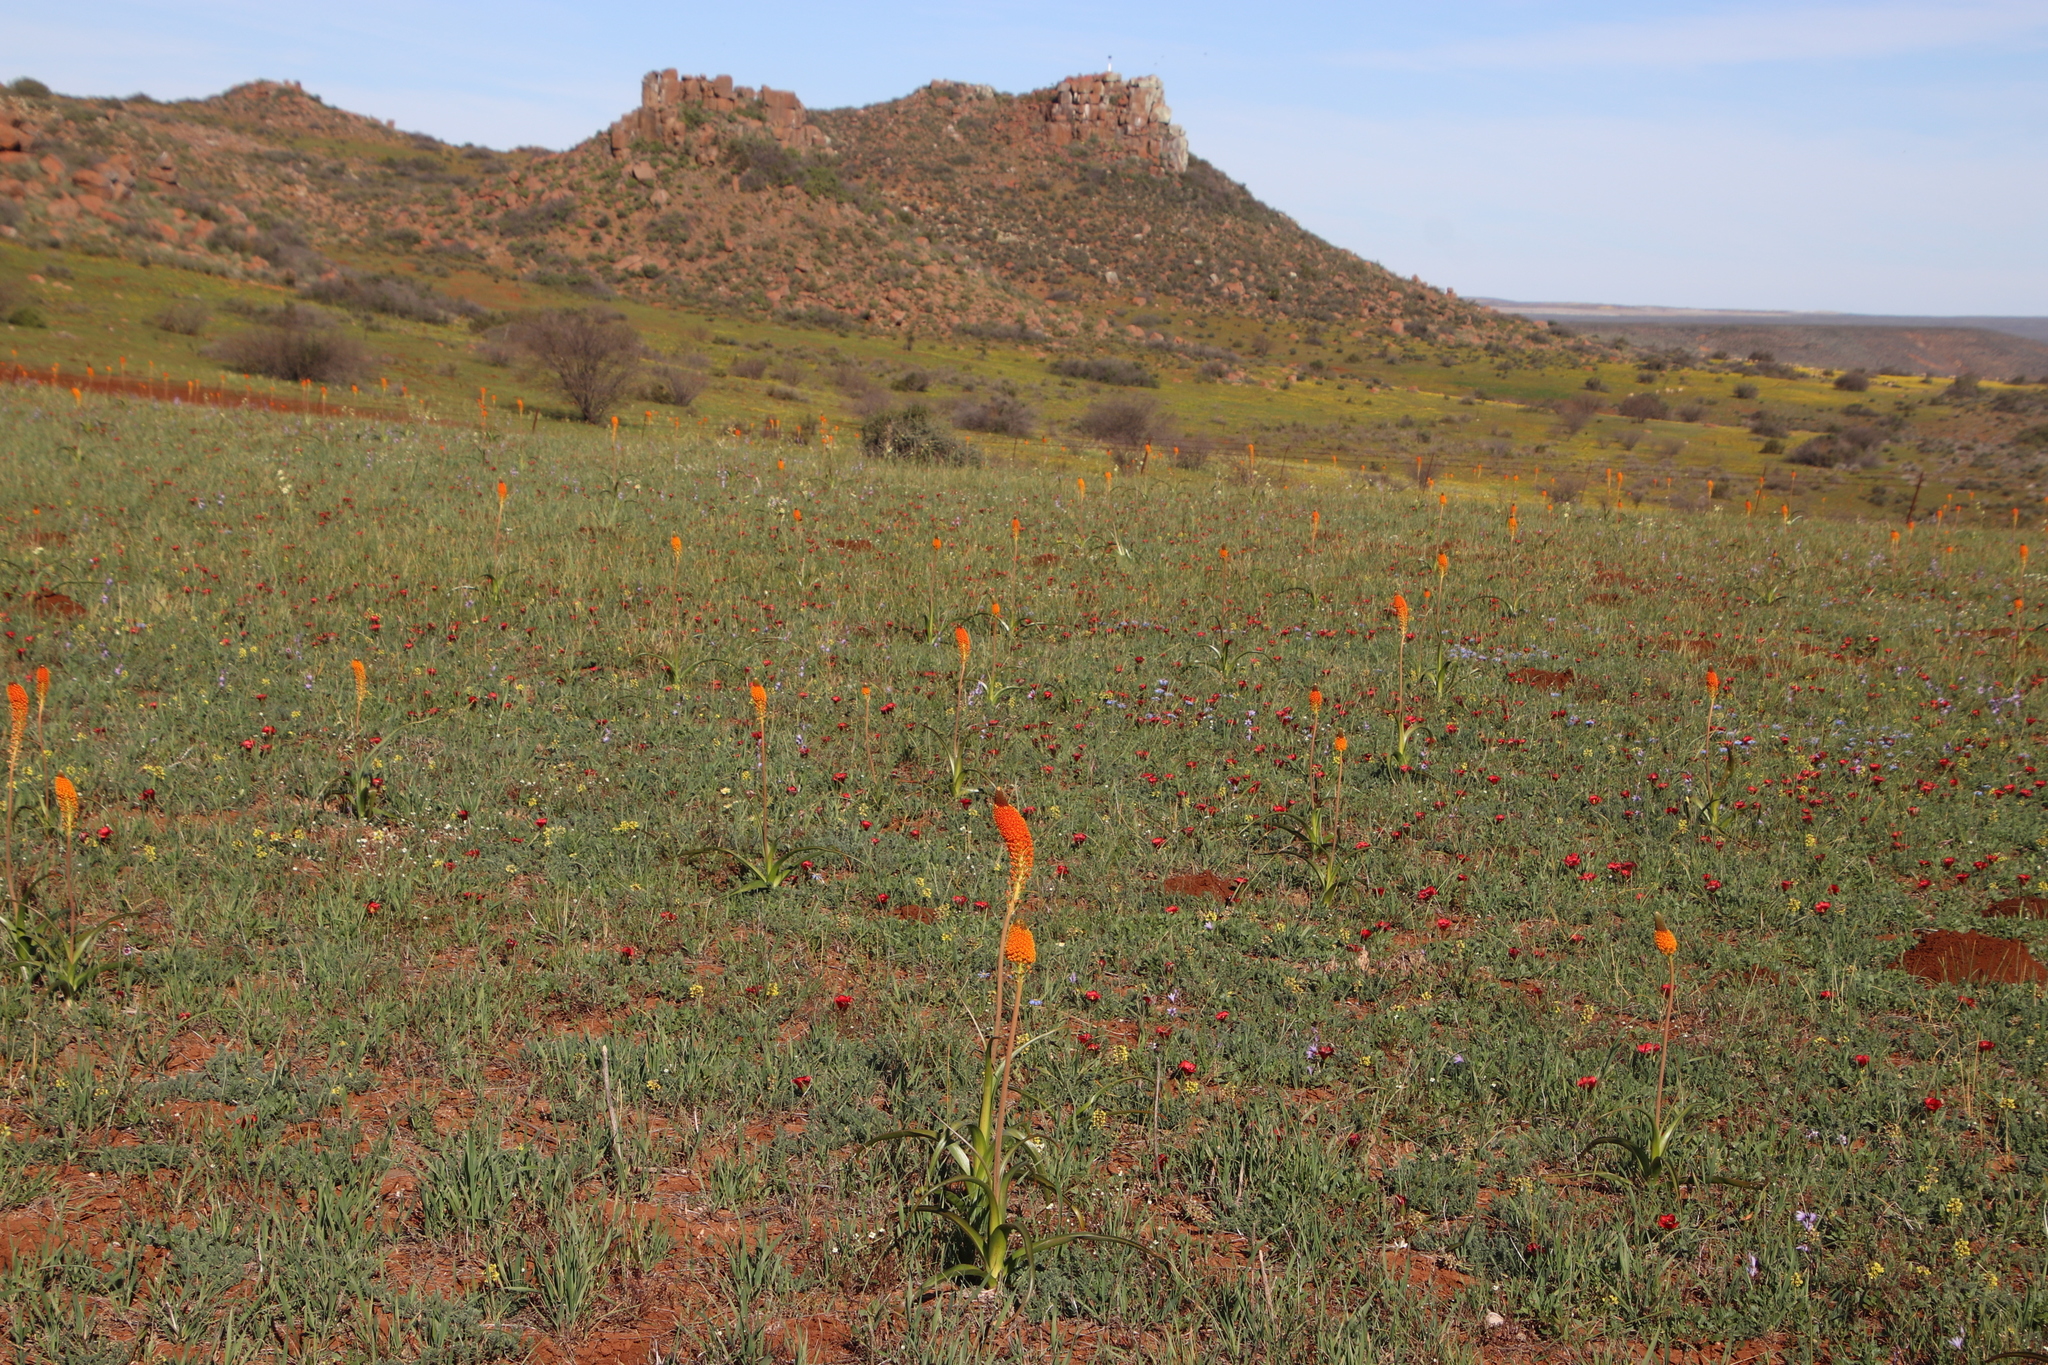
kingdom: Plantae
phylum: Tracheophyta
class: Liliopsida
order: Asparagales
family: Asphodelaceae
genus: Bulbinella
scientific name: Bulbinella latifolia
